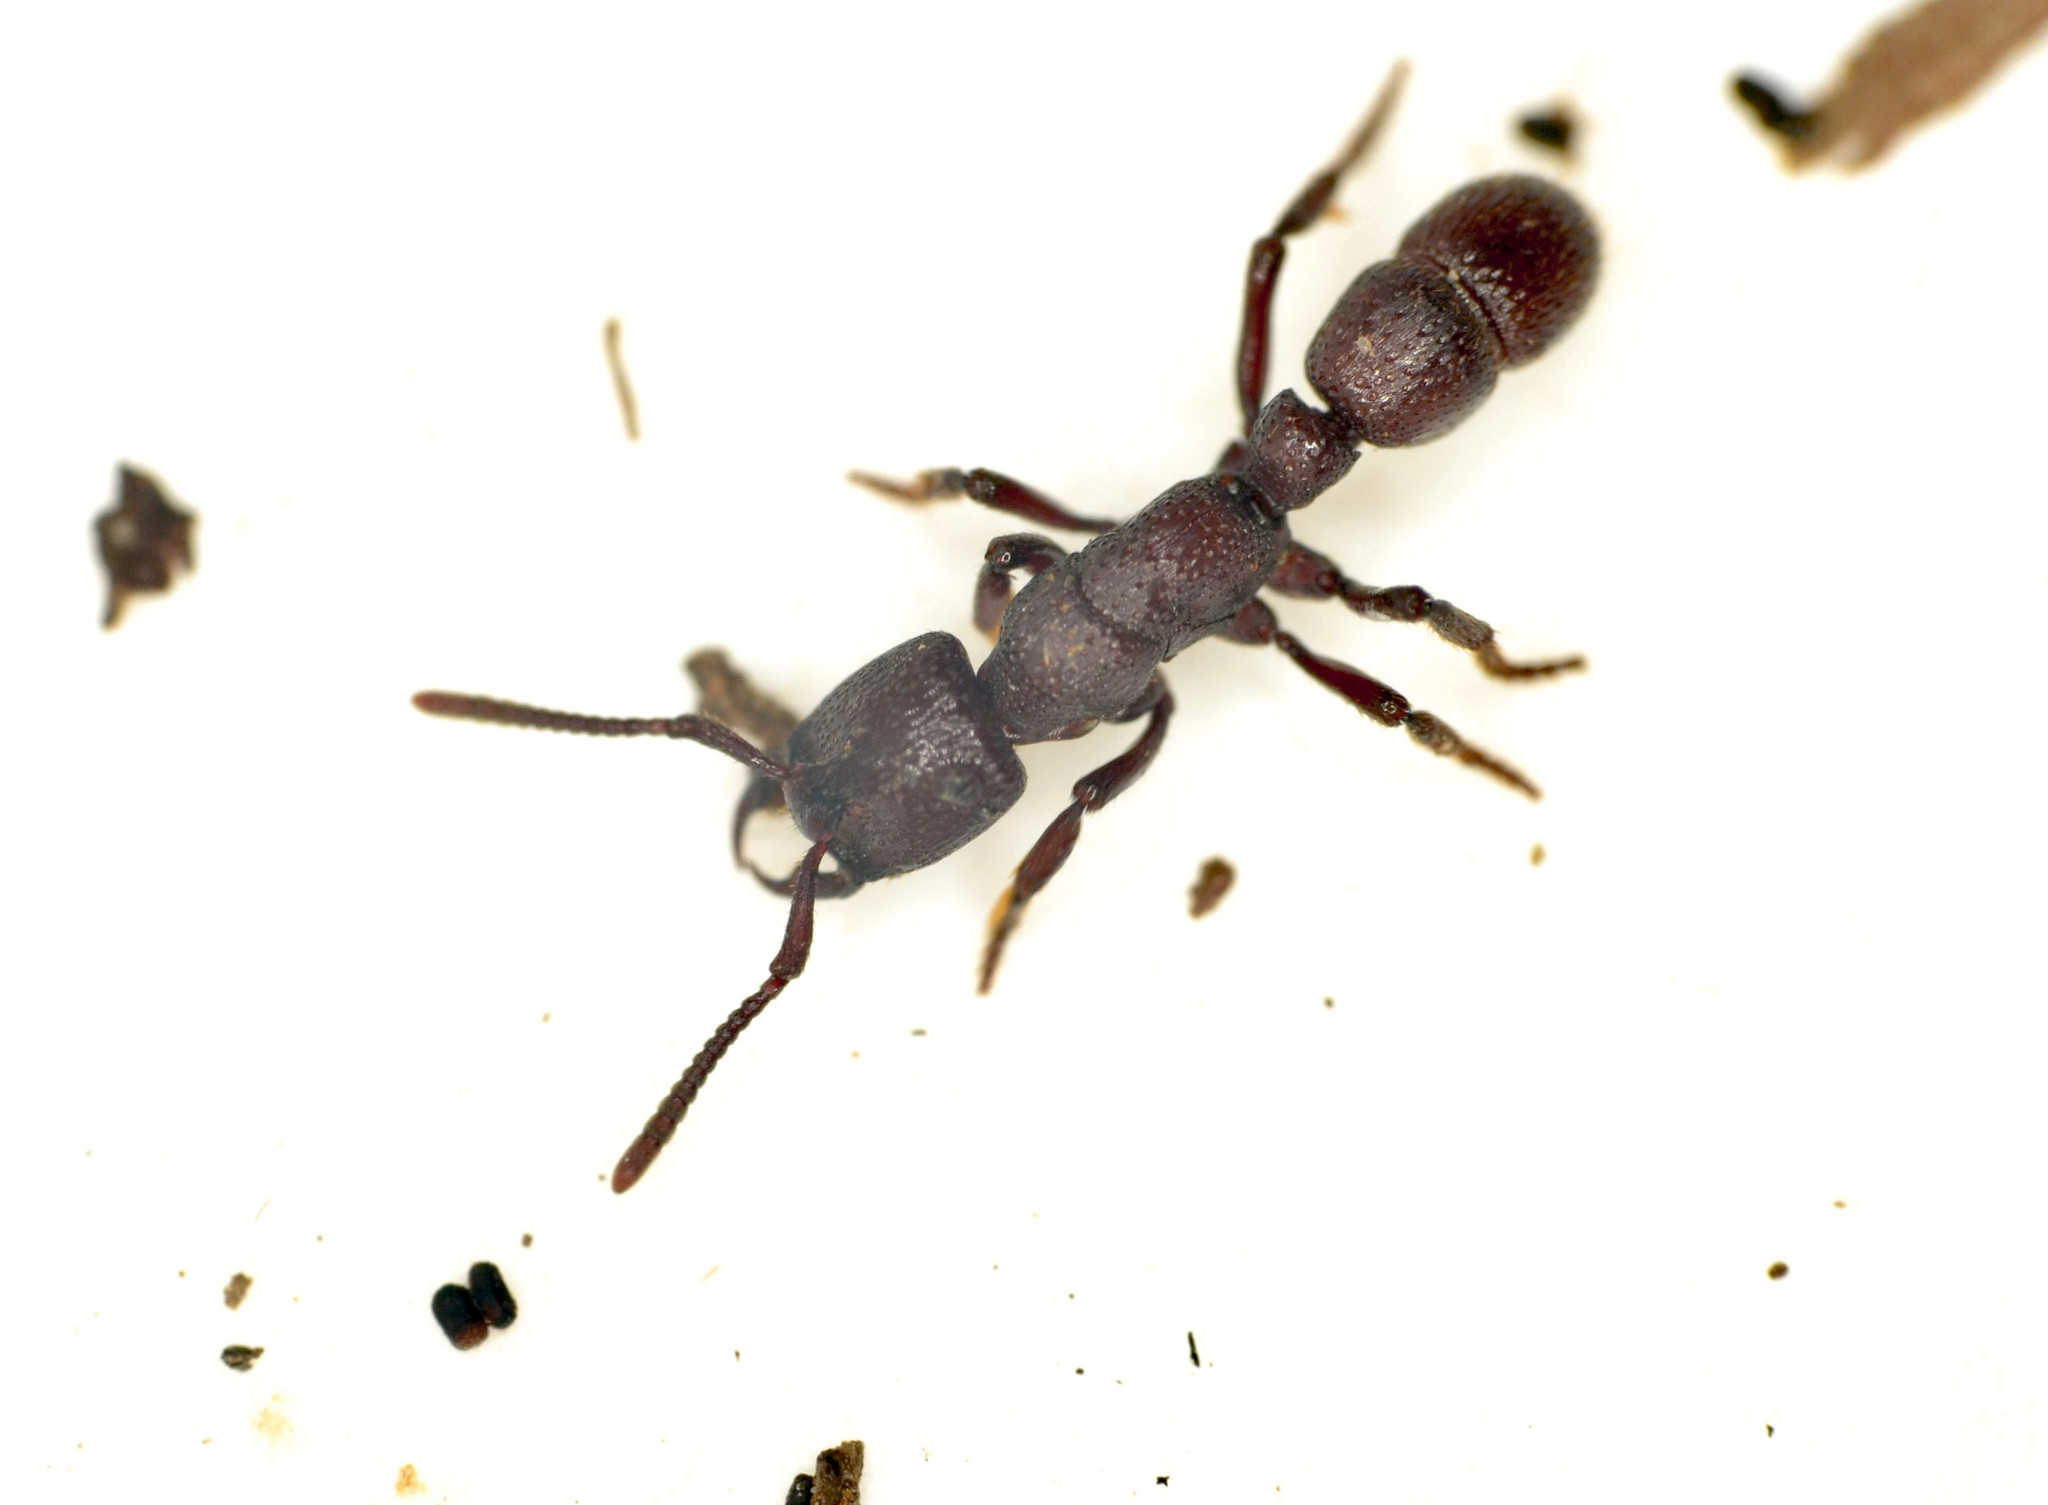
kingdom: Animalia
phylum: Arthropoda
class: Insecta
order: Hymenoptera
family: Formicidae
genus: Psalidomyrmex
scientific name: Psalidomyrmex foveolatus
